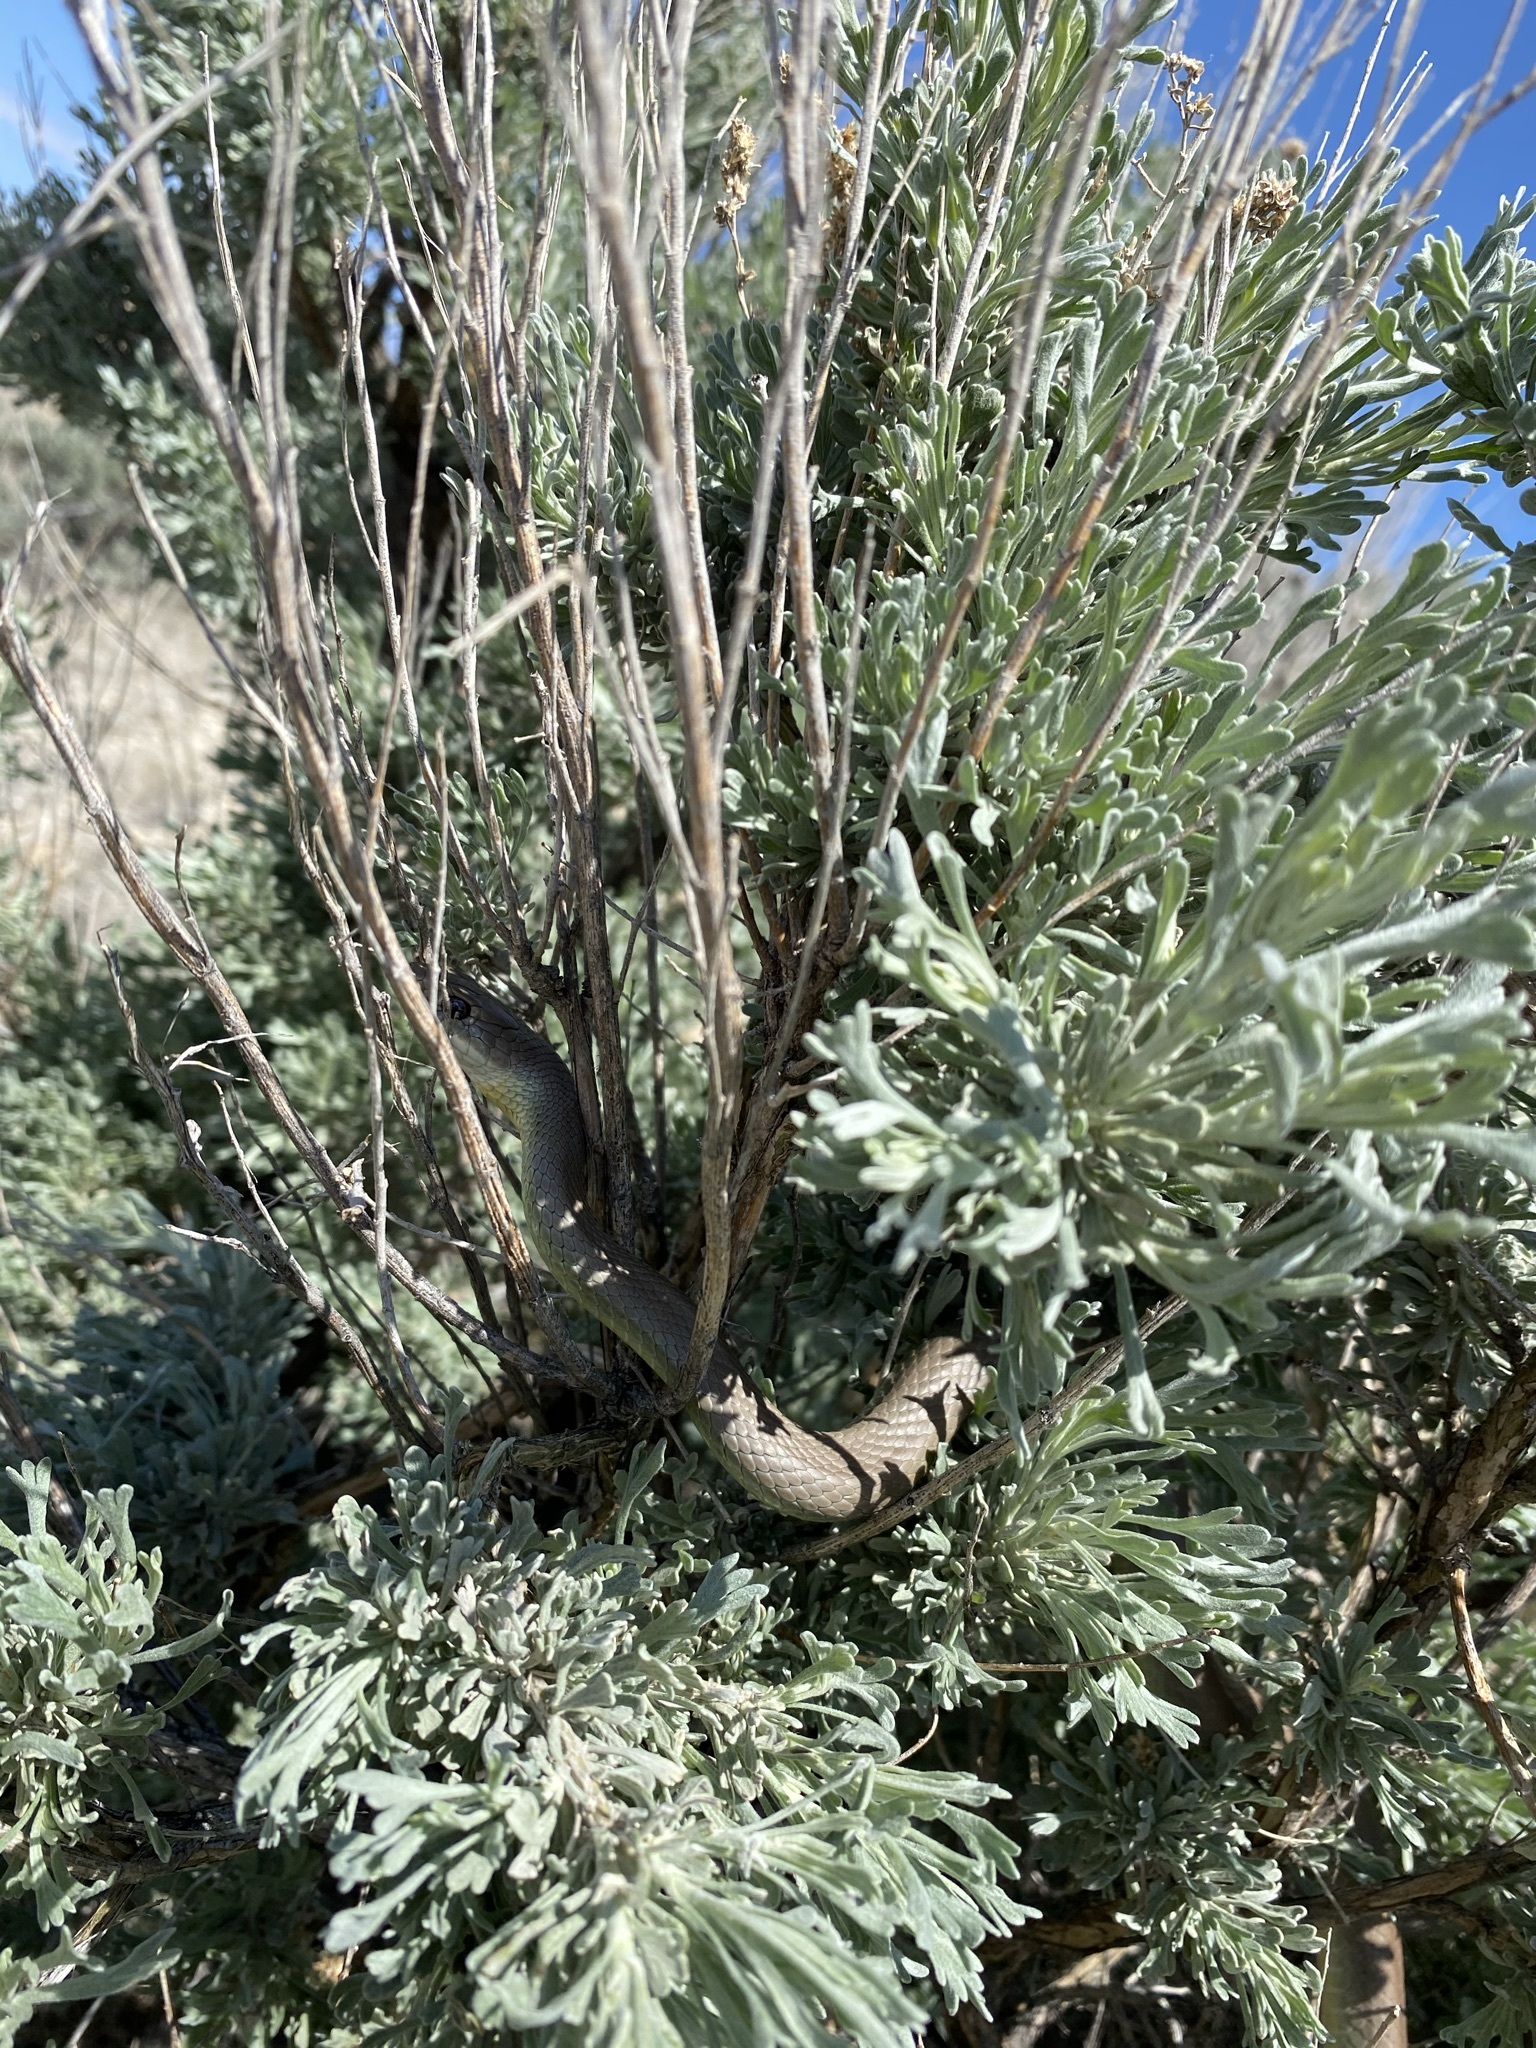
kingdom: Animalia
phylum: Chordata
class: Squamata
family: Colubridae
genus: Coluber
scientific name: Coluber constrictor
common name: Eastern racer
